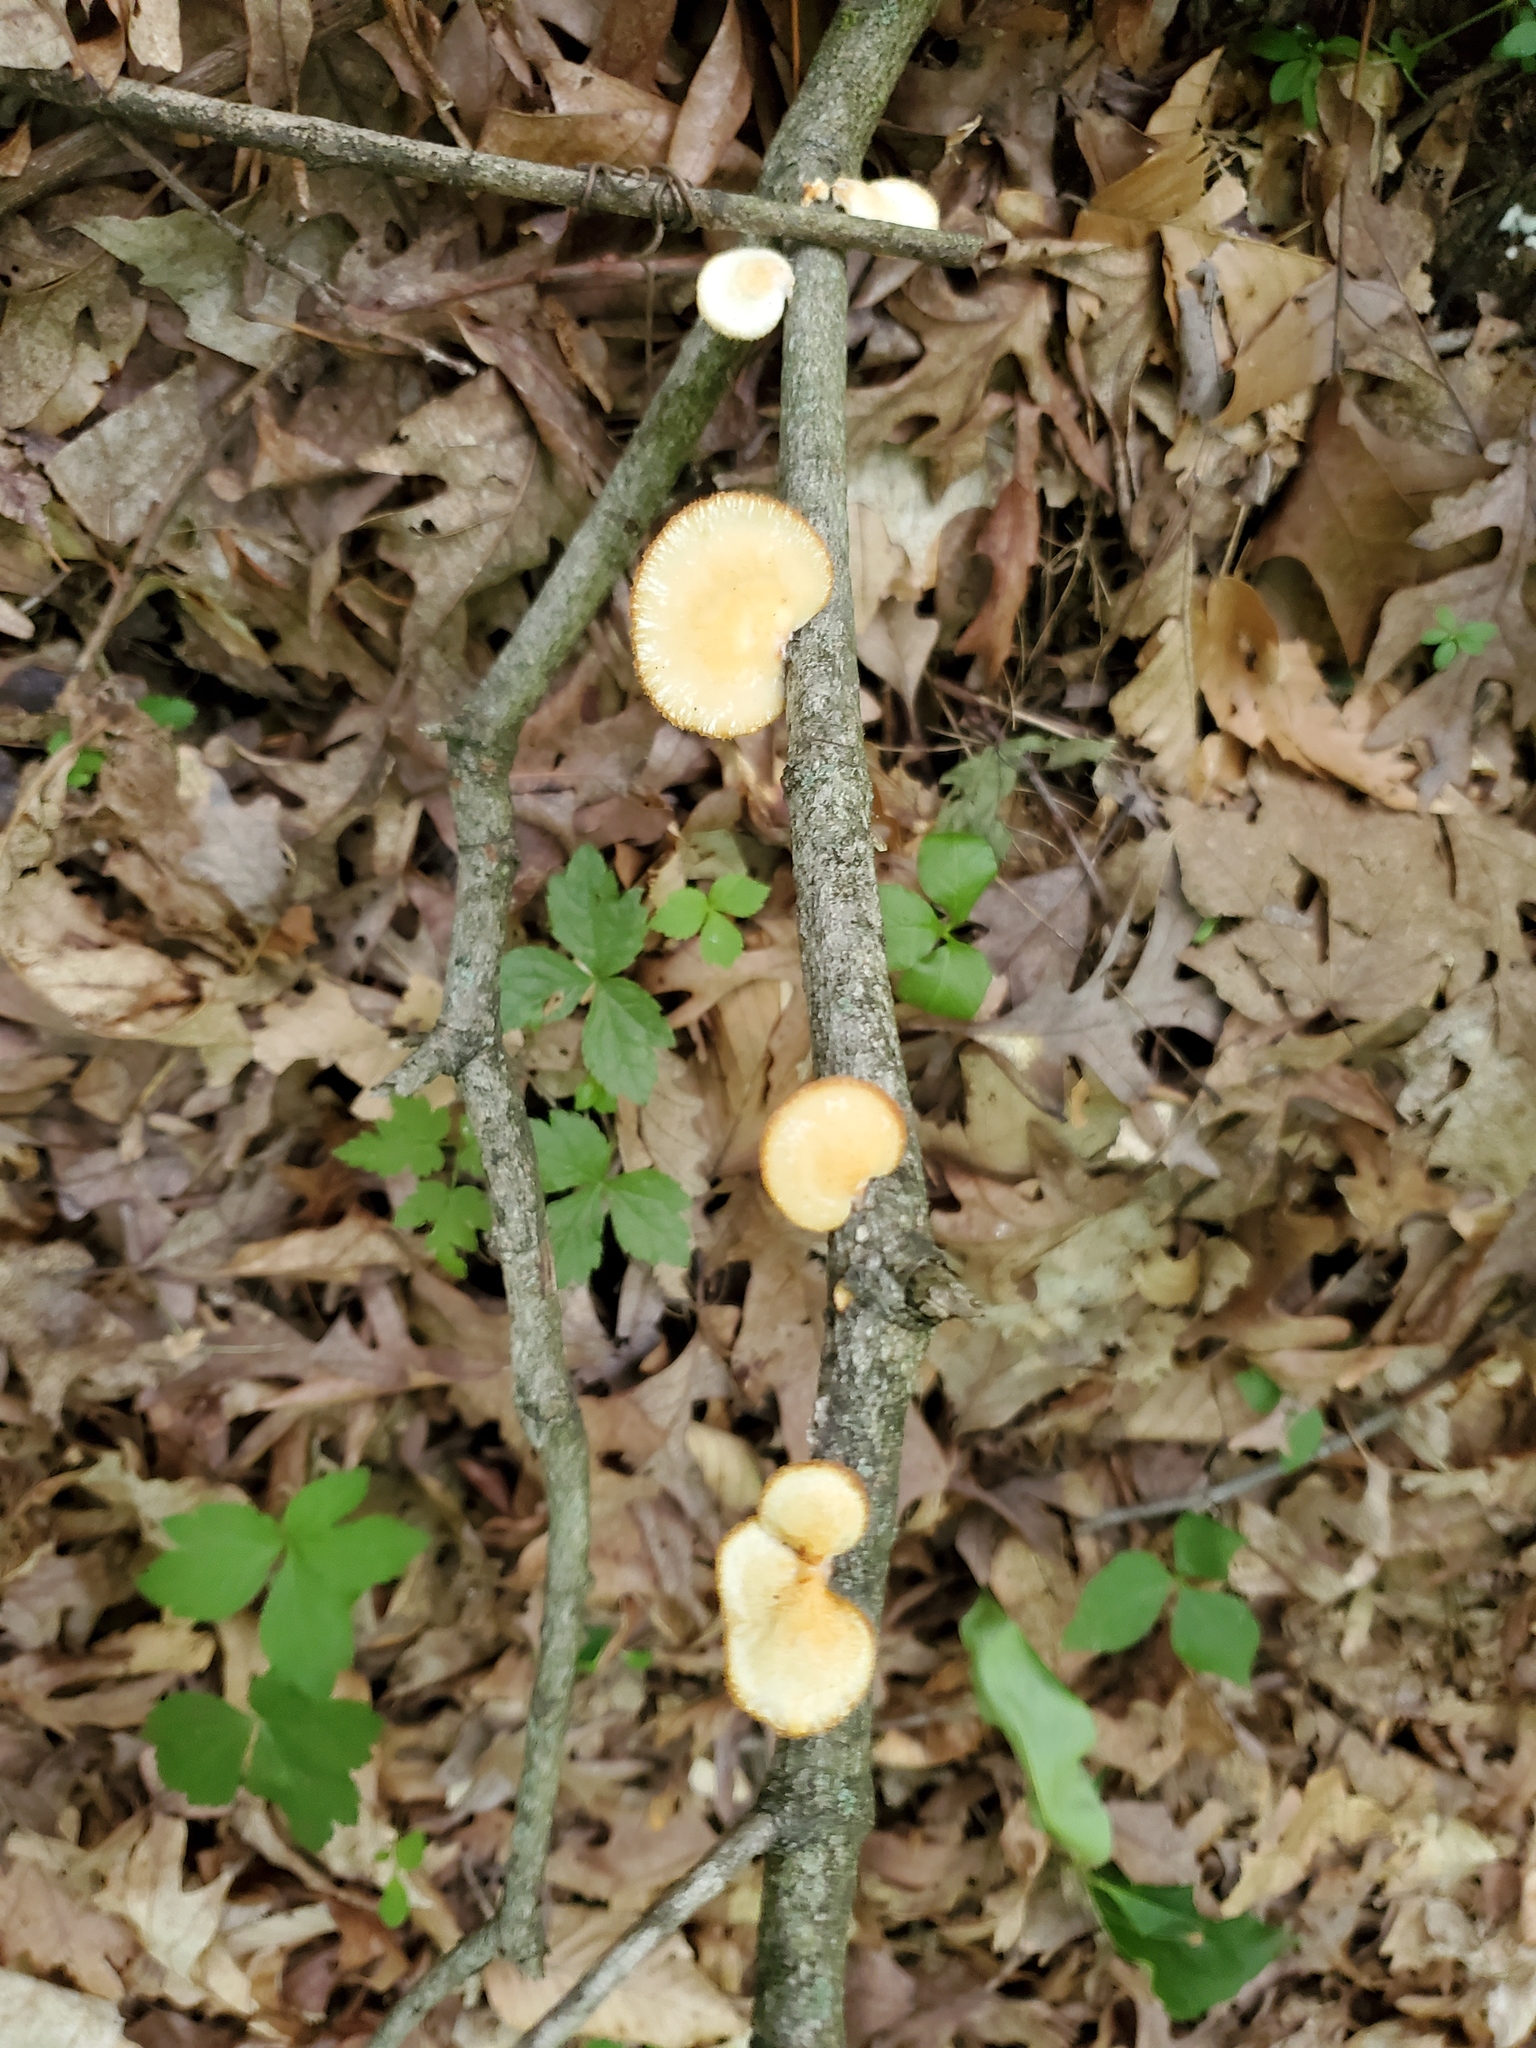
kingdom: Fungi
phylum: Basidiomycota
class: Agaricomycetes
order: Polyporales
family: Polyporaceae
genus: Neofavolus
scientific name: Neofavolus alveolaris
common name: Hexagonal-pored polypore
